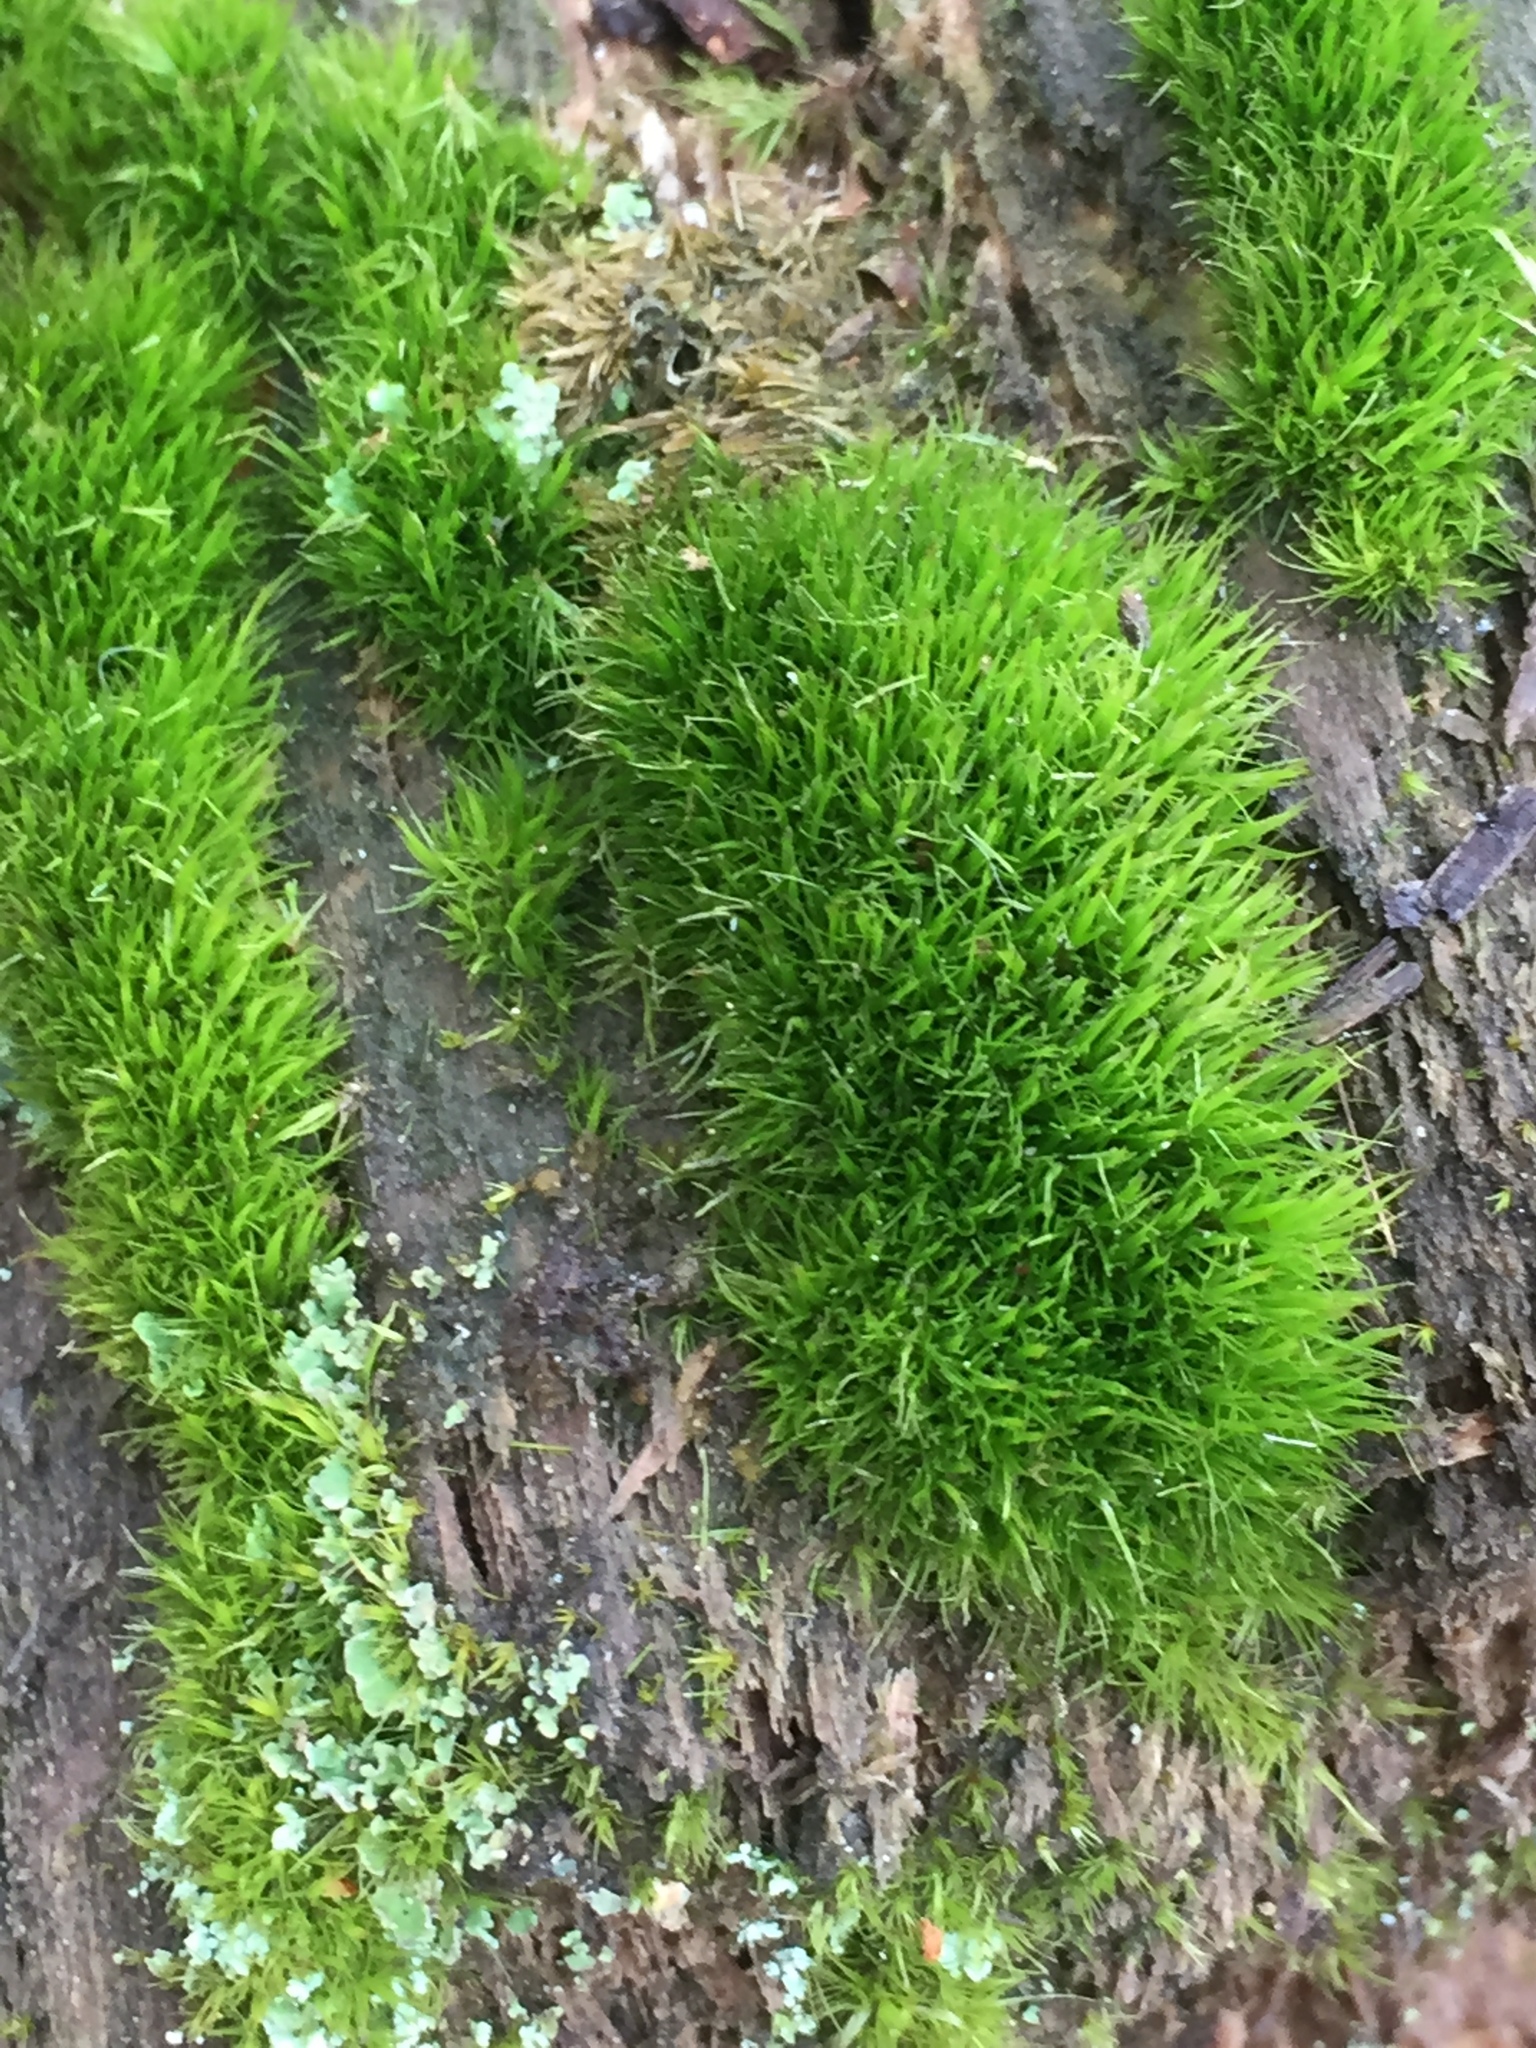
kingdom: Plantae
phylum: Bryophyta
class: Bryopsida
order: Dicranales
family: Dicranaceae
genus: Orthodicranum
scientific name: Orthodicranum tauricum
